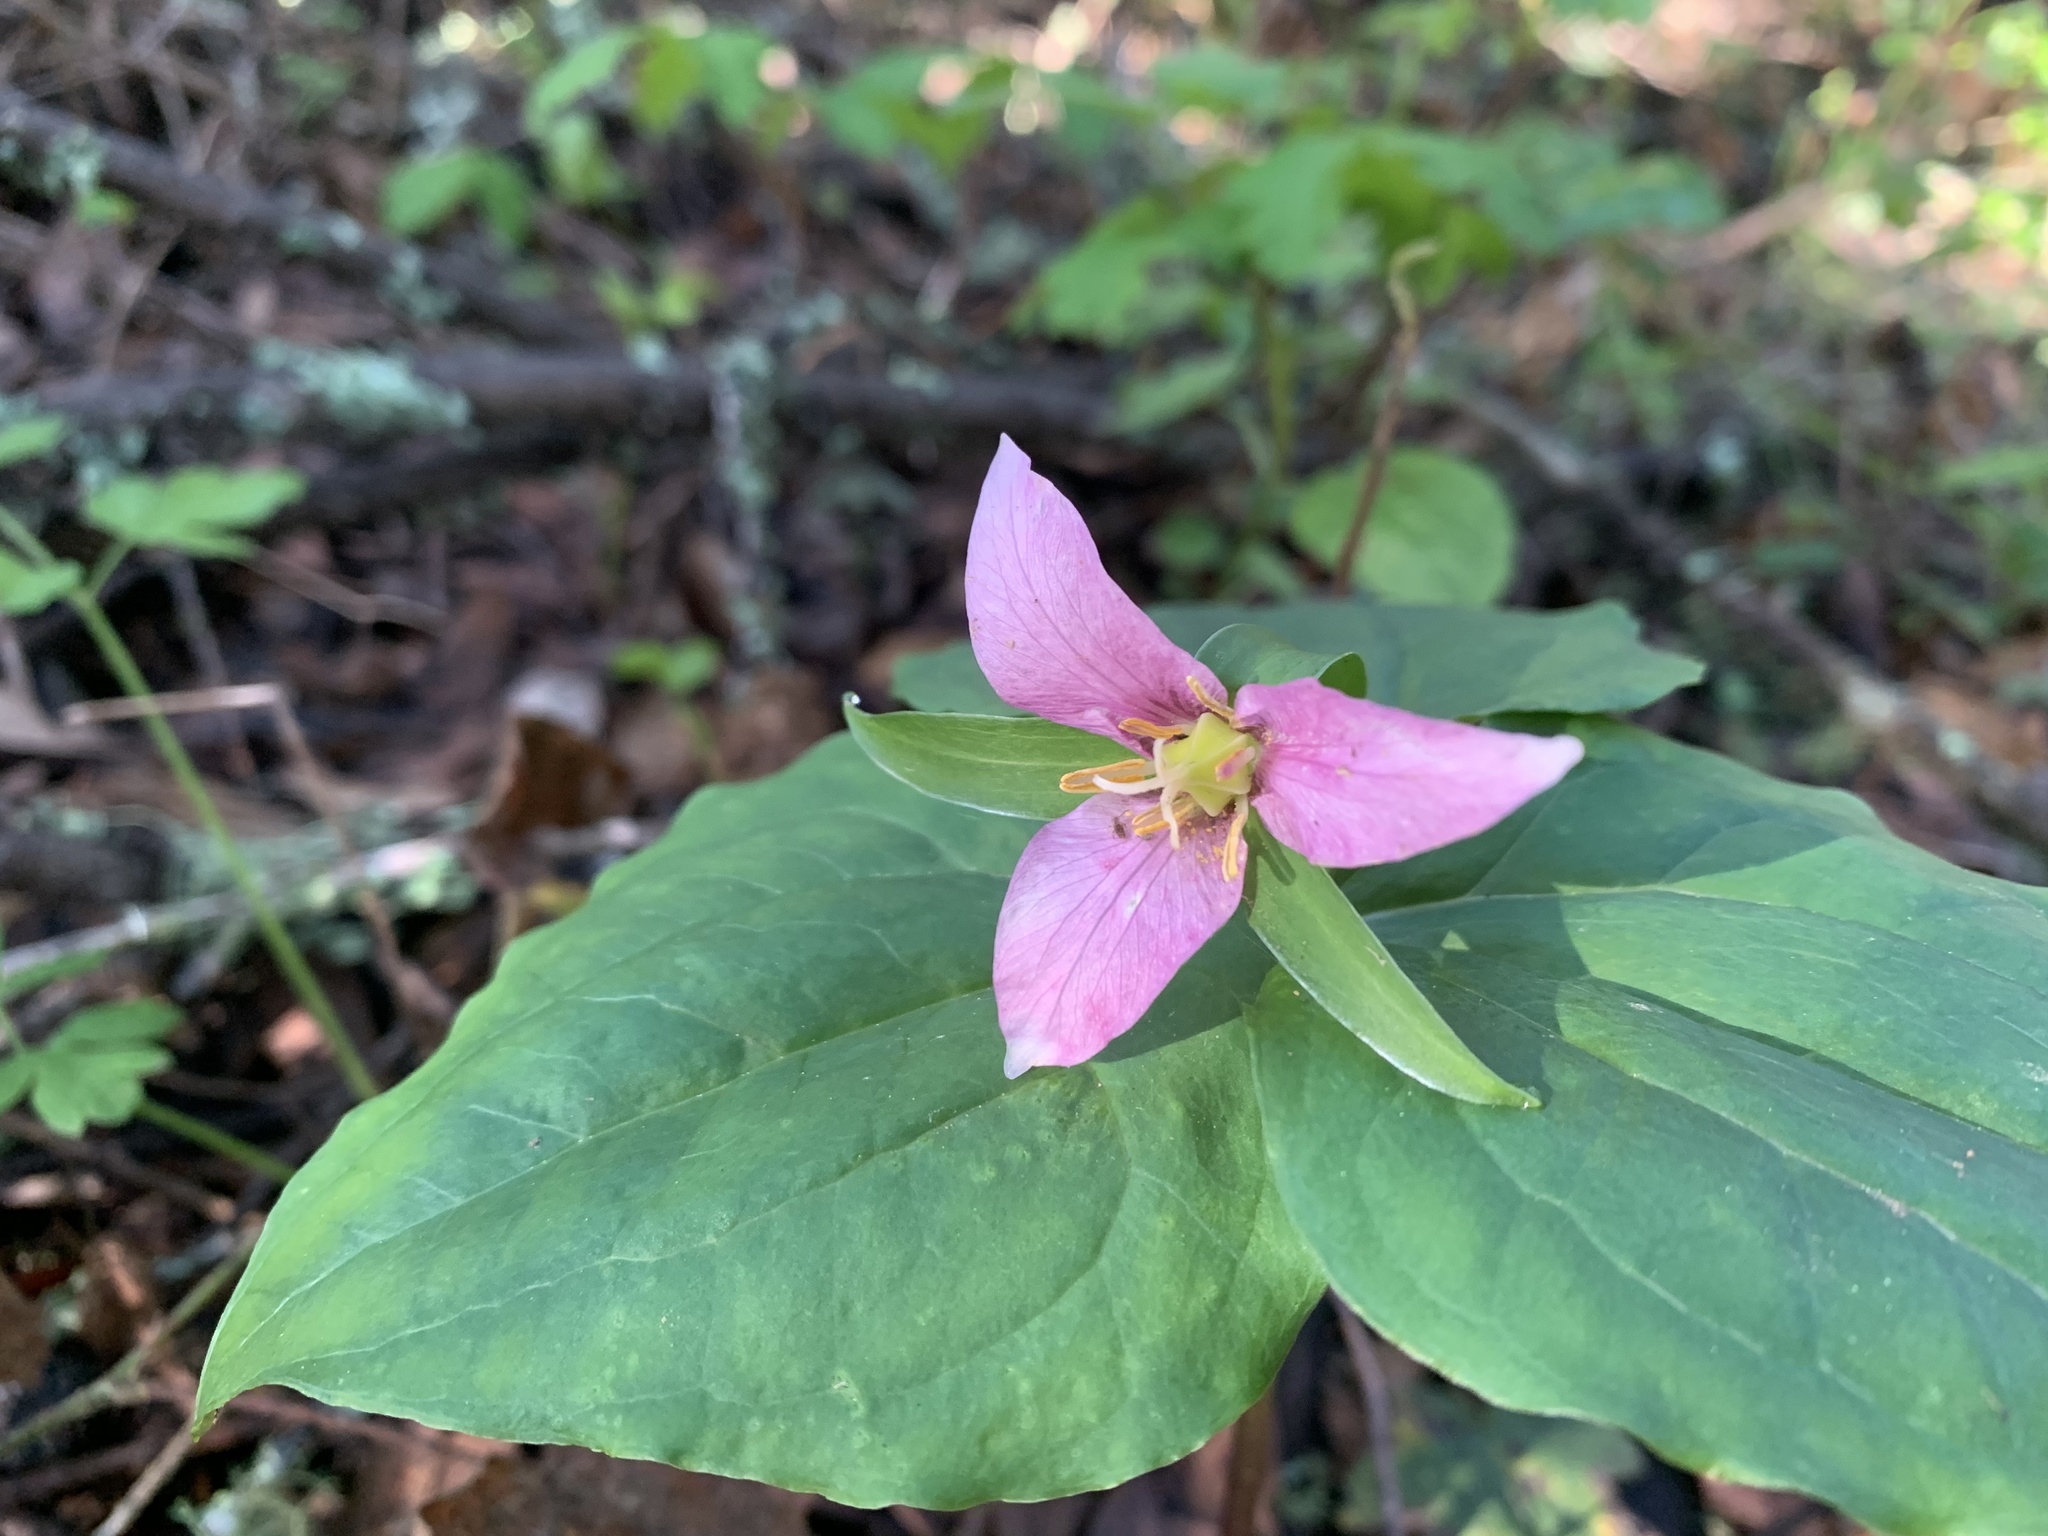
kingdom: Plantae
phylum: Tracheophyta
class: Liliopsida
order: Liliales
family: Melanthiaceae
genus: Trillium
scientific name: Trillium ovatum
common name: Pacific trillium
